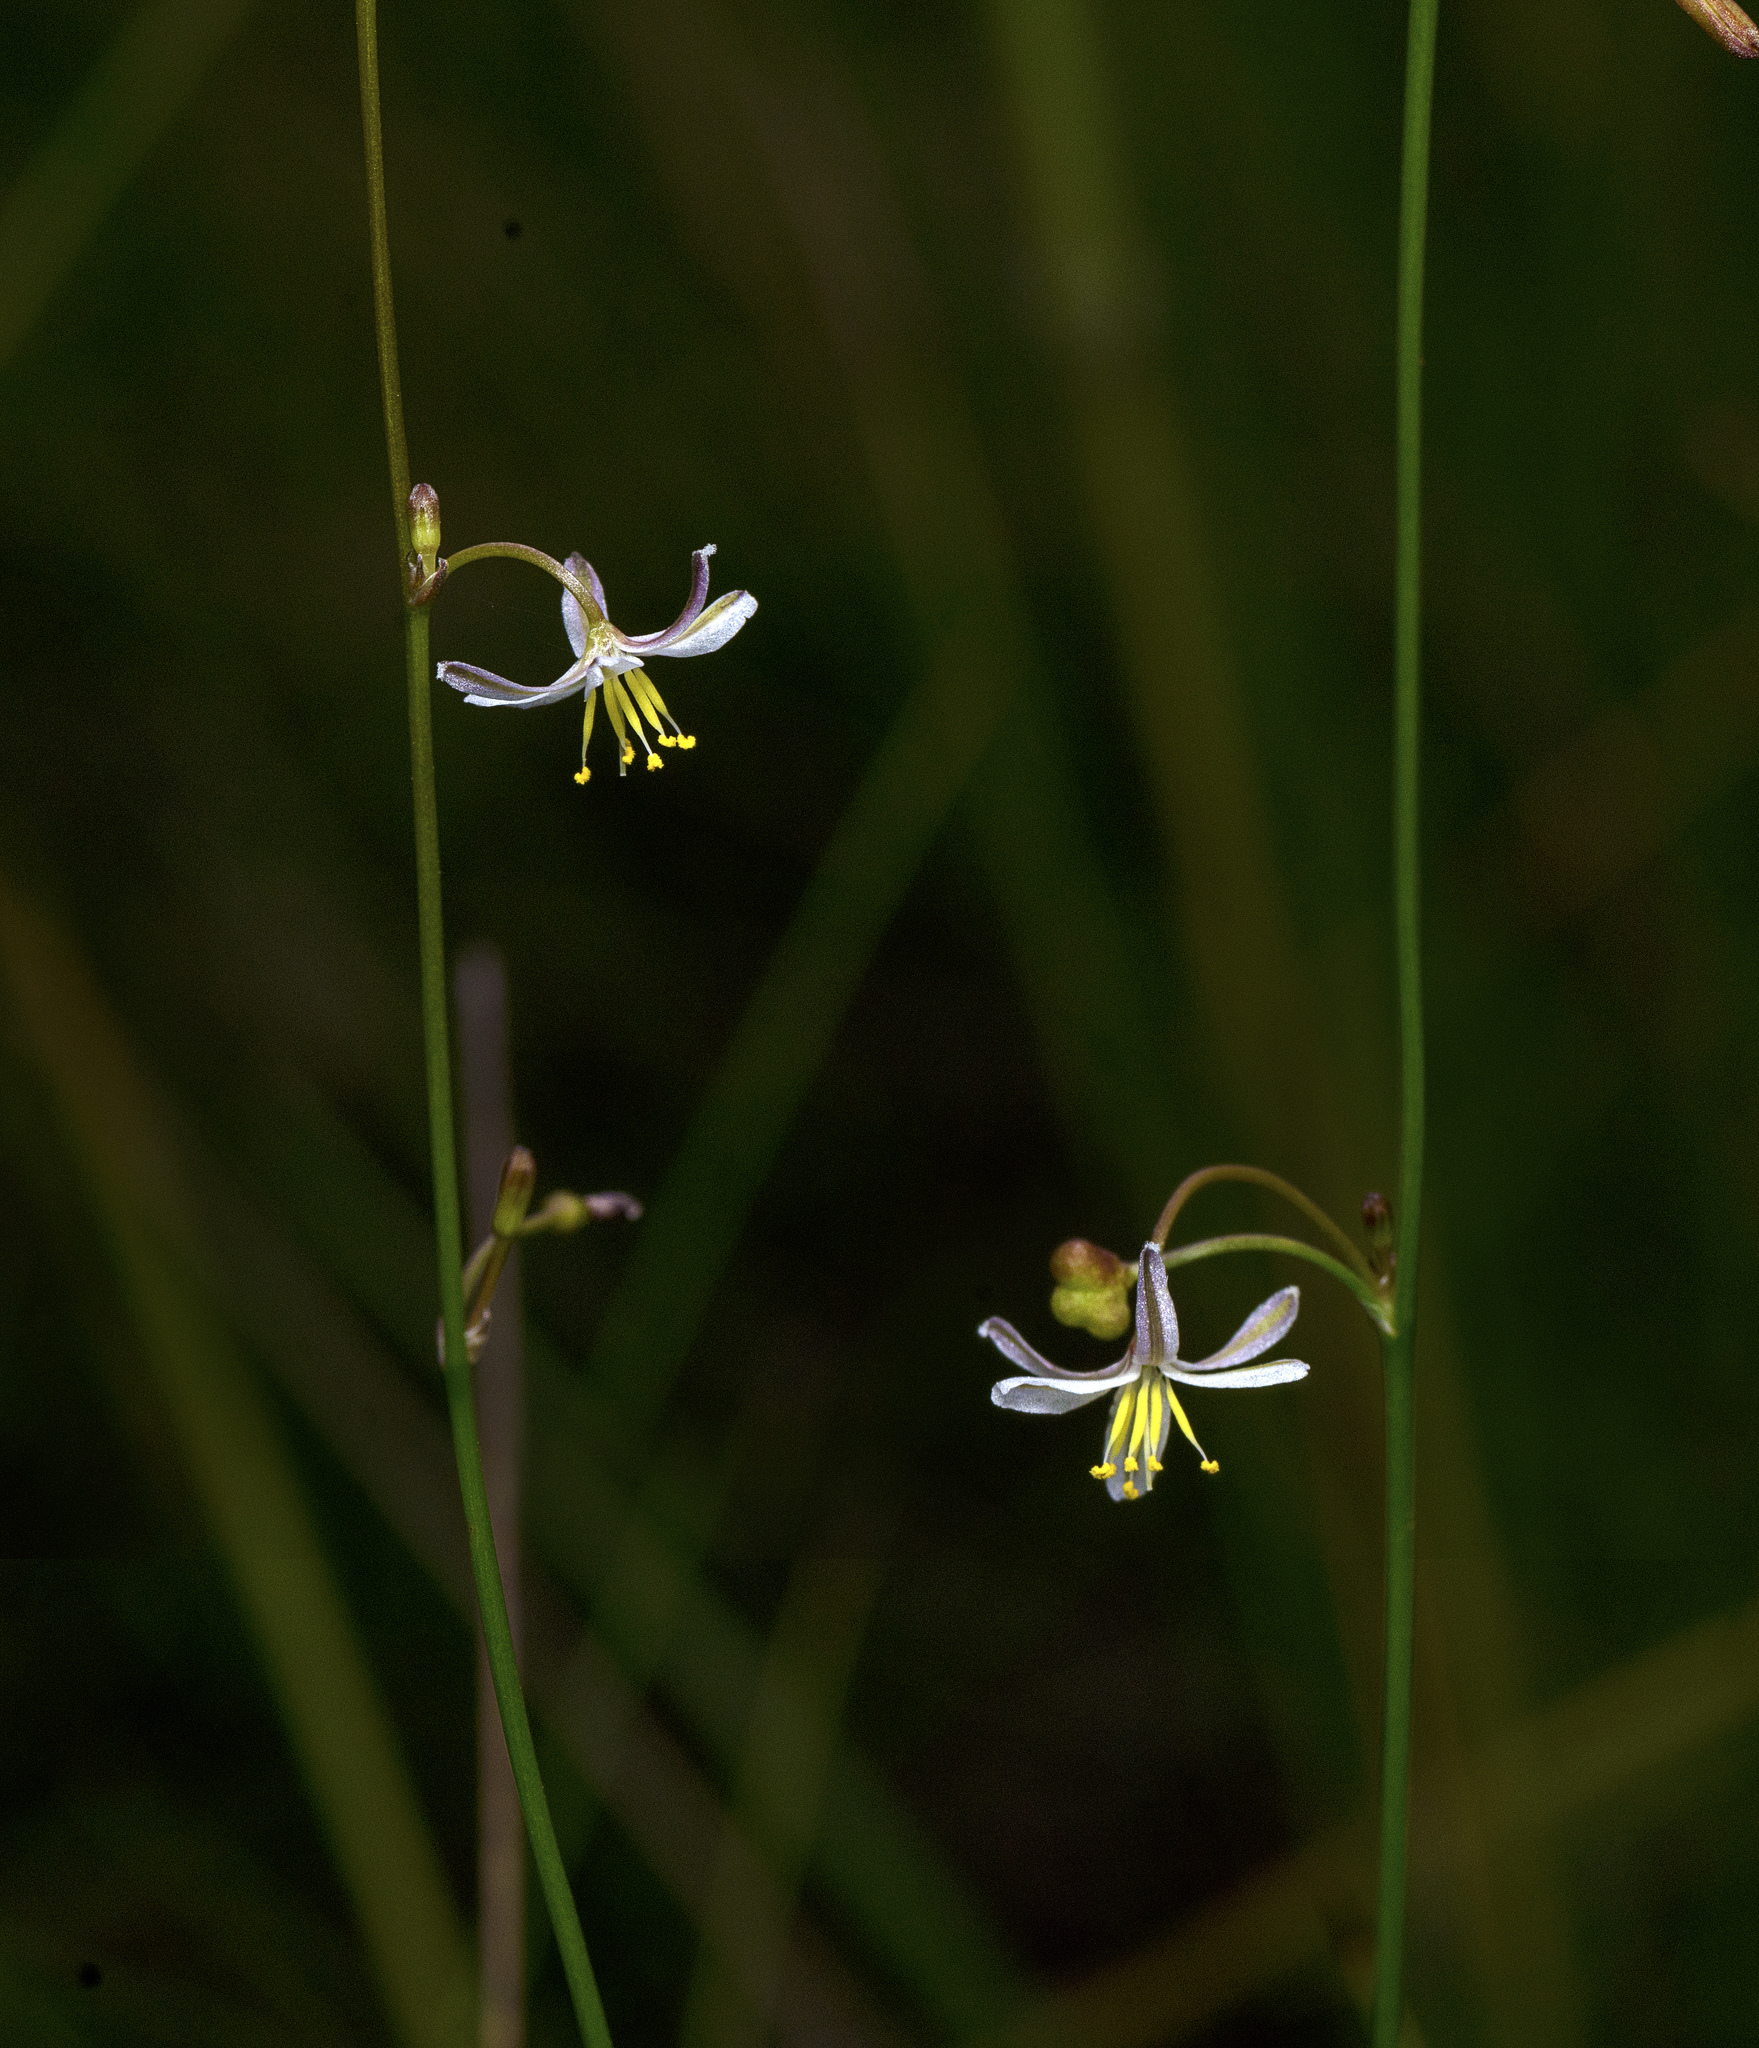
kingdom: Plantae
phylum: Tracheophyta
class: Liliopsida
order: Asparagales
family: Asphodelaceae
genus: Caesia
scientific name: Caesia
